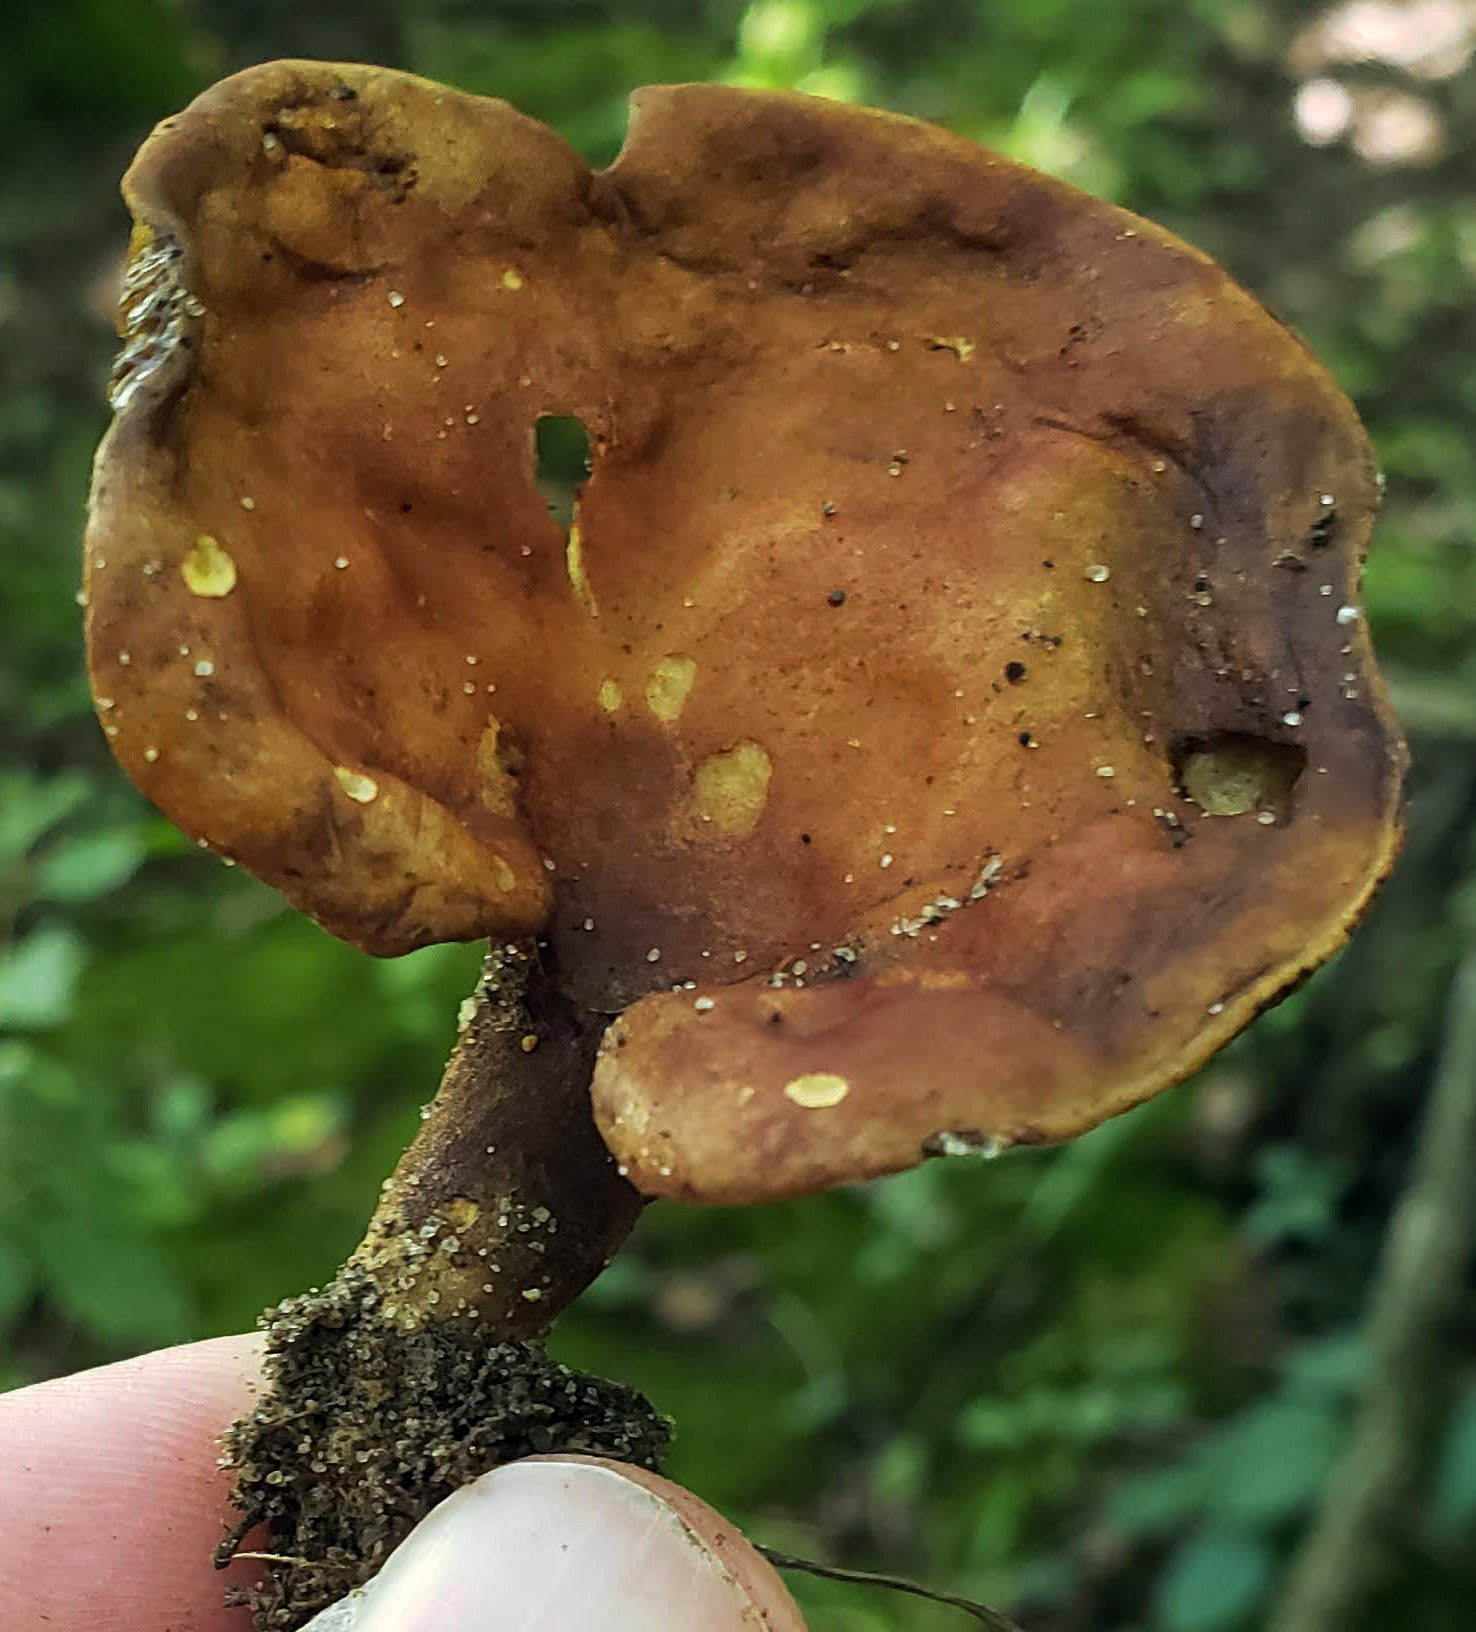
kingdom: Fungi
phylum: Basidiomycota
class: Agaricomycetes
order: Boletales
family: Boletinellaceae
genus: Boletinellus
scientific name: Boletinellus merulioides
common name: Ash tree bolete
